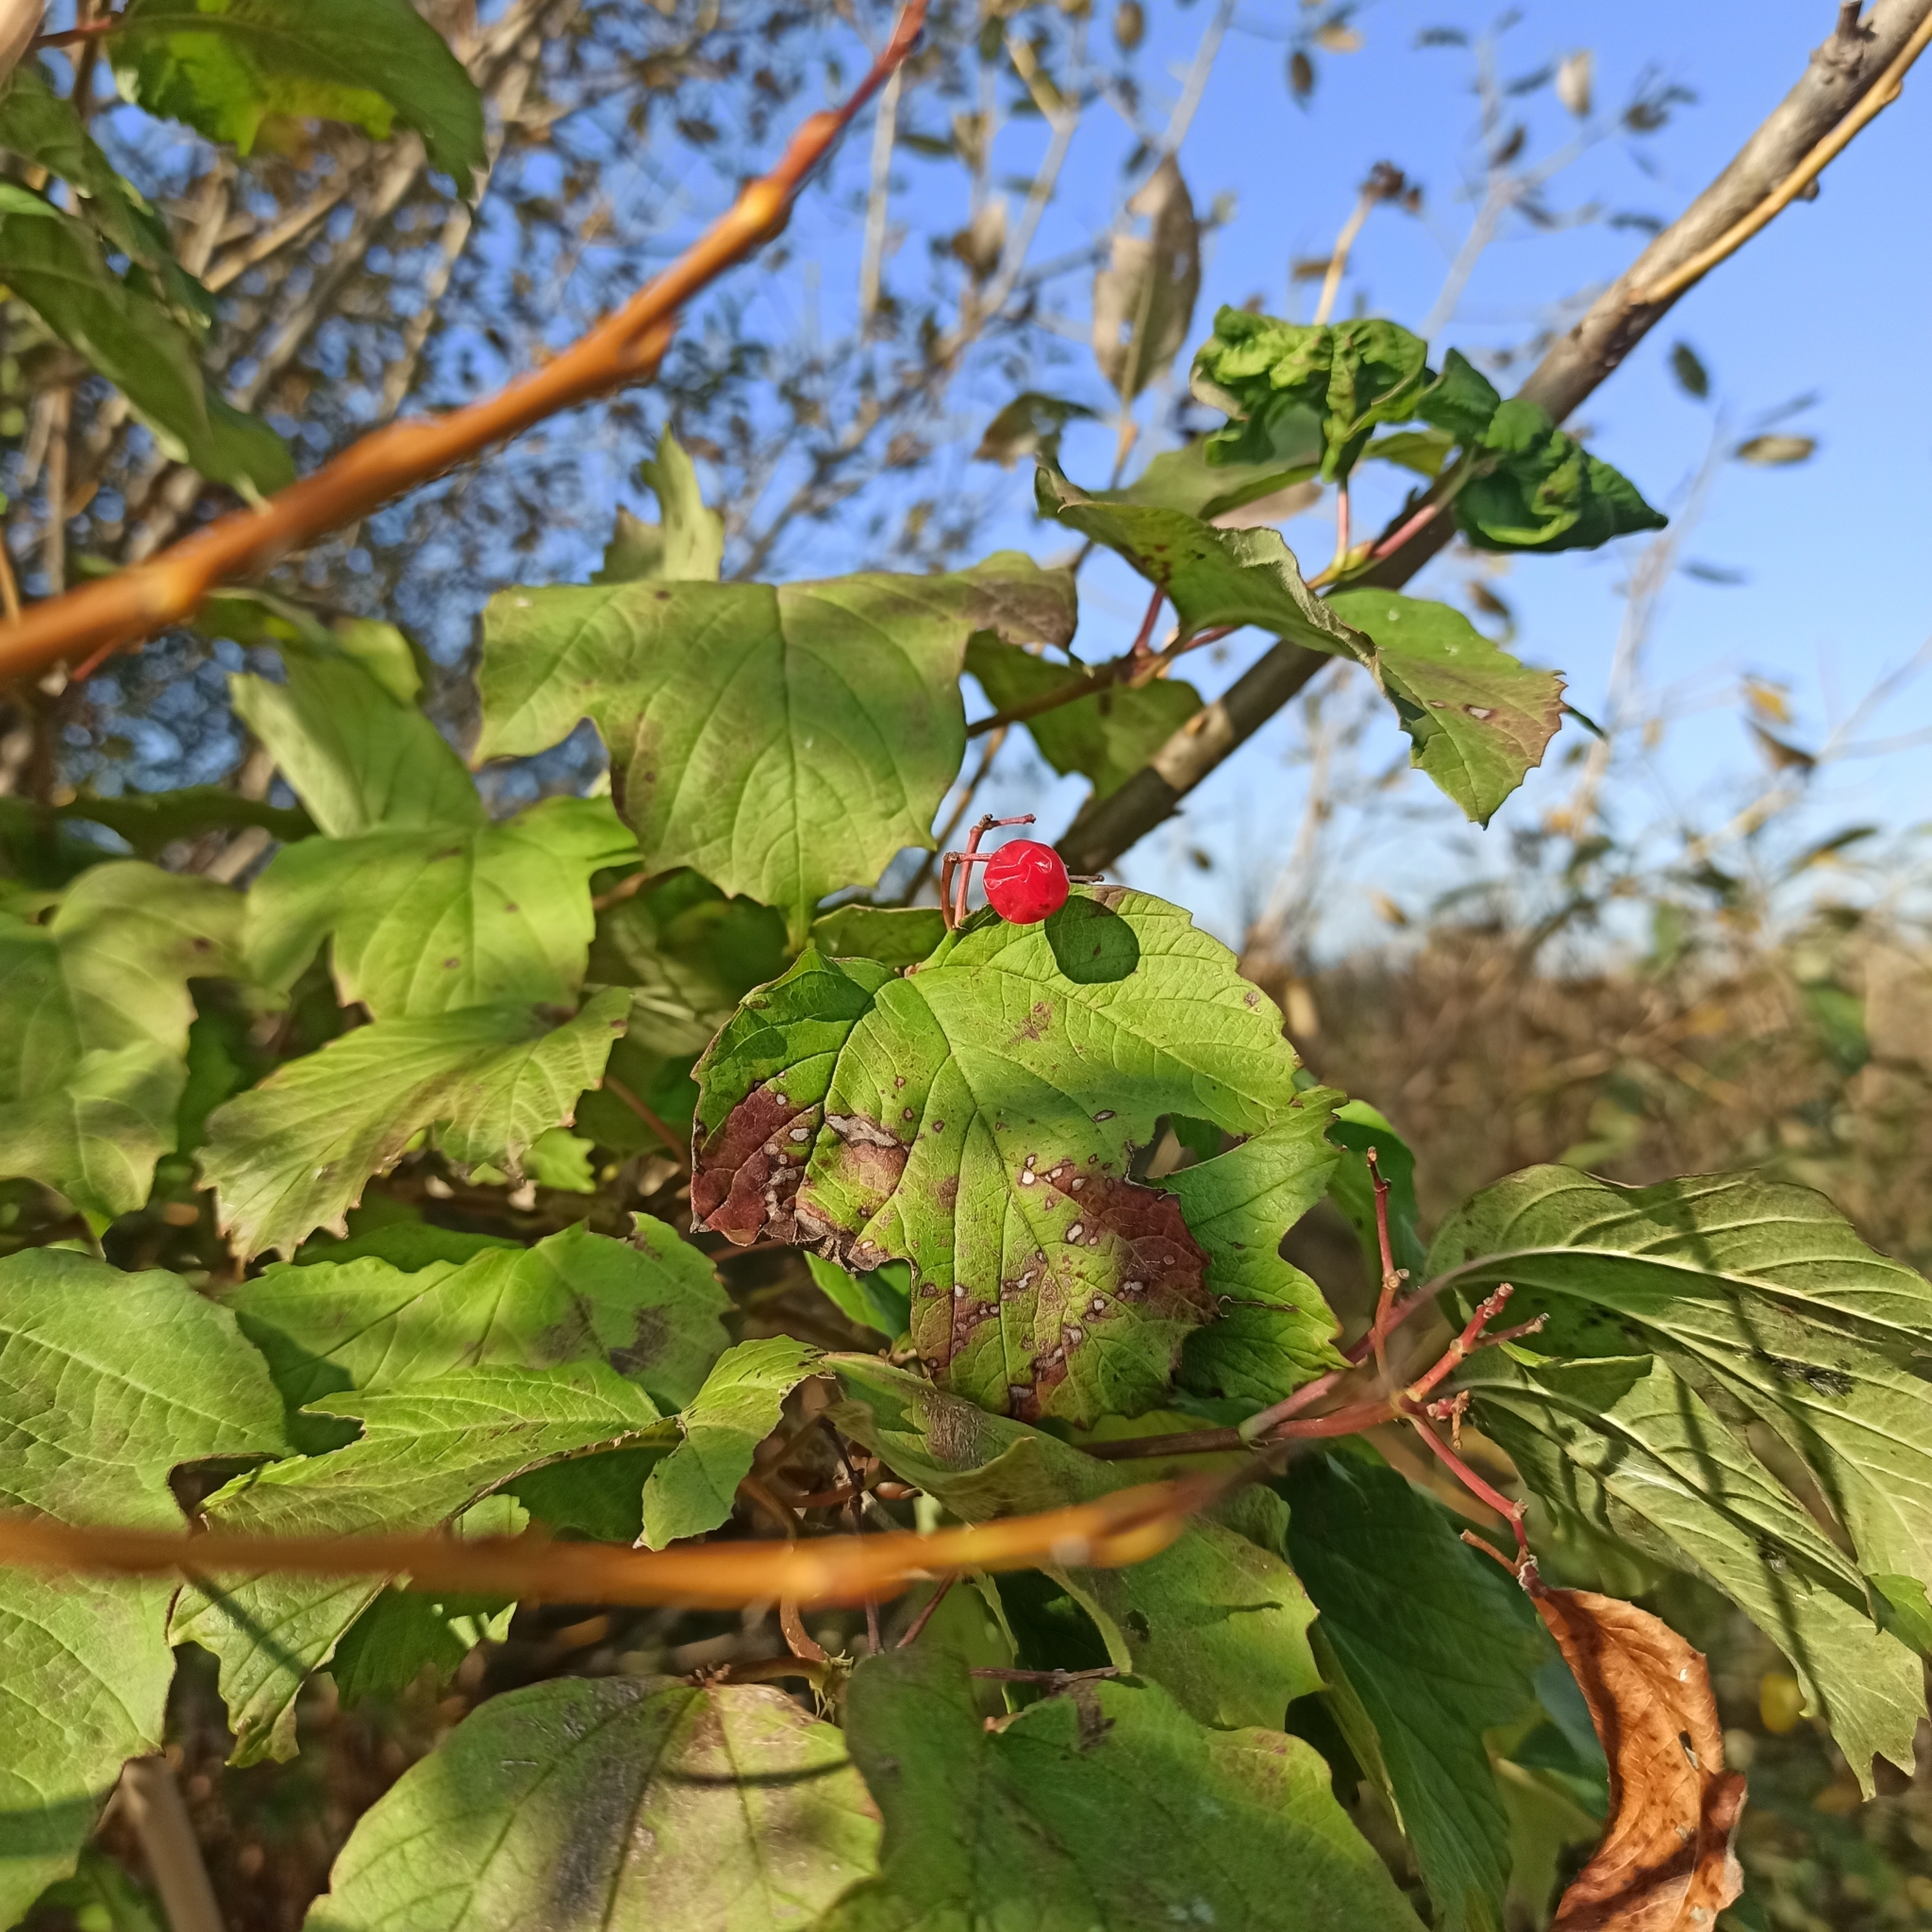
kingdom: Plantae
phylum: Tracheophyta
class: Magnoliopsida
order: Dipsacales
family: Viburnaceae
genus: Viburnum
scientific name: Viburnum opulus
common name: Guelder-rose
